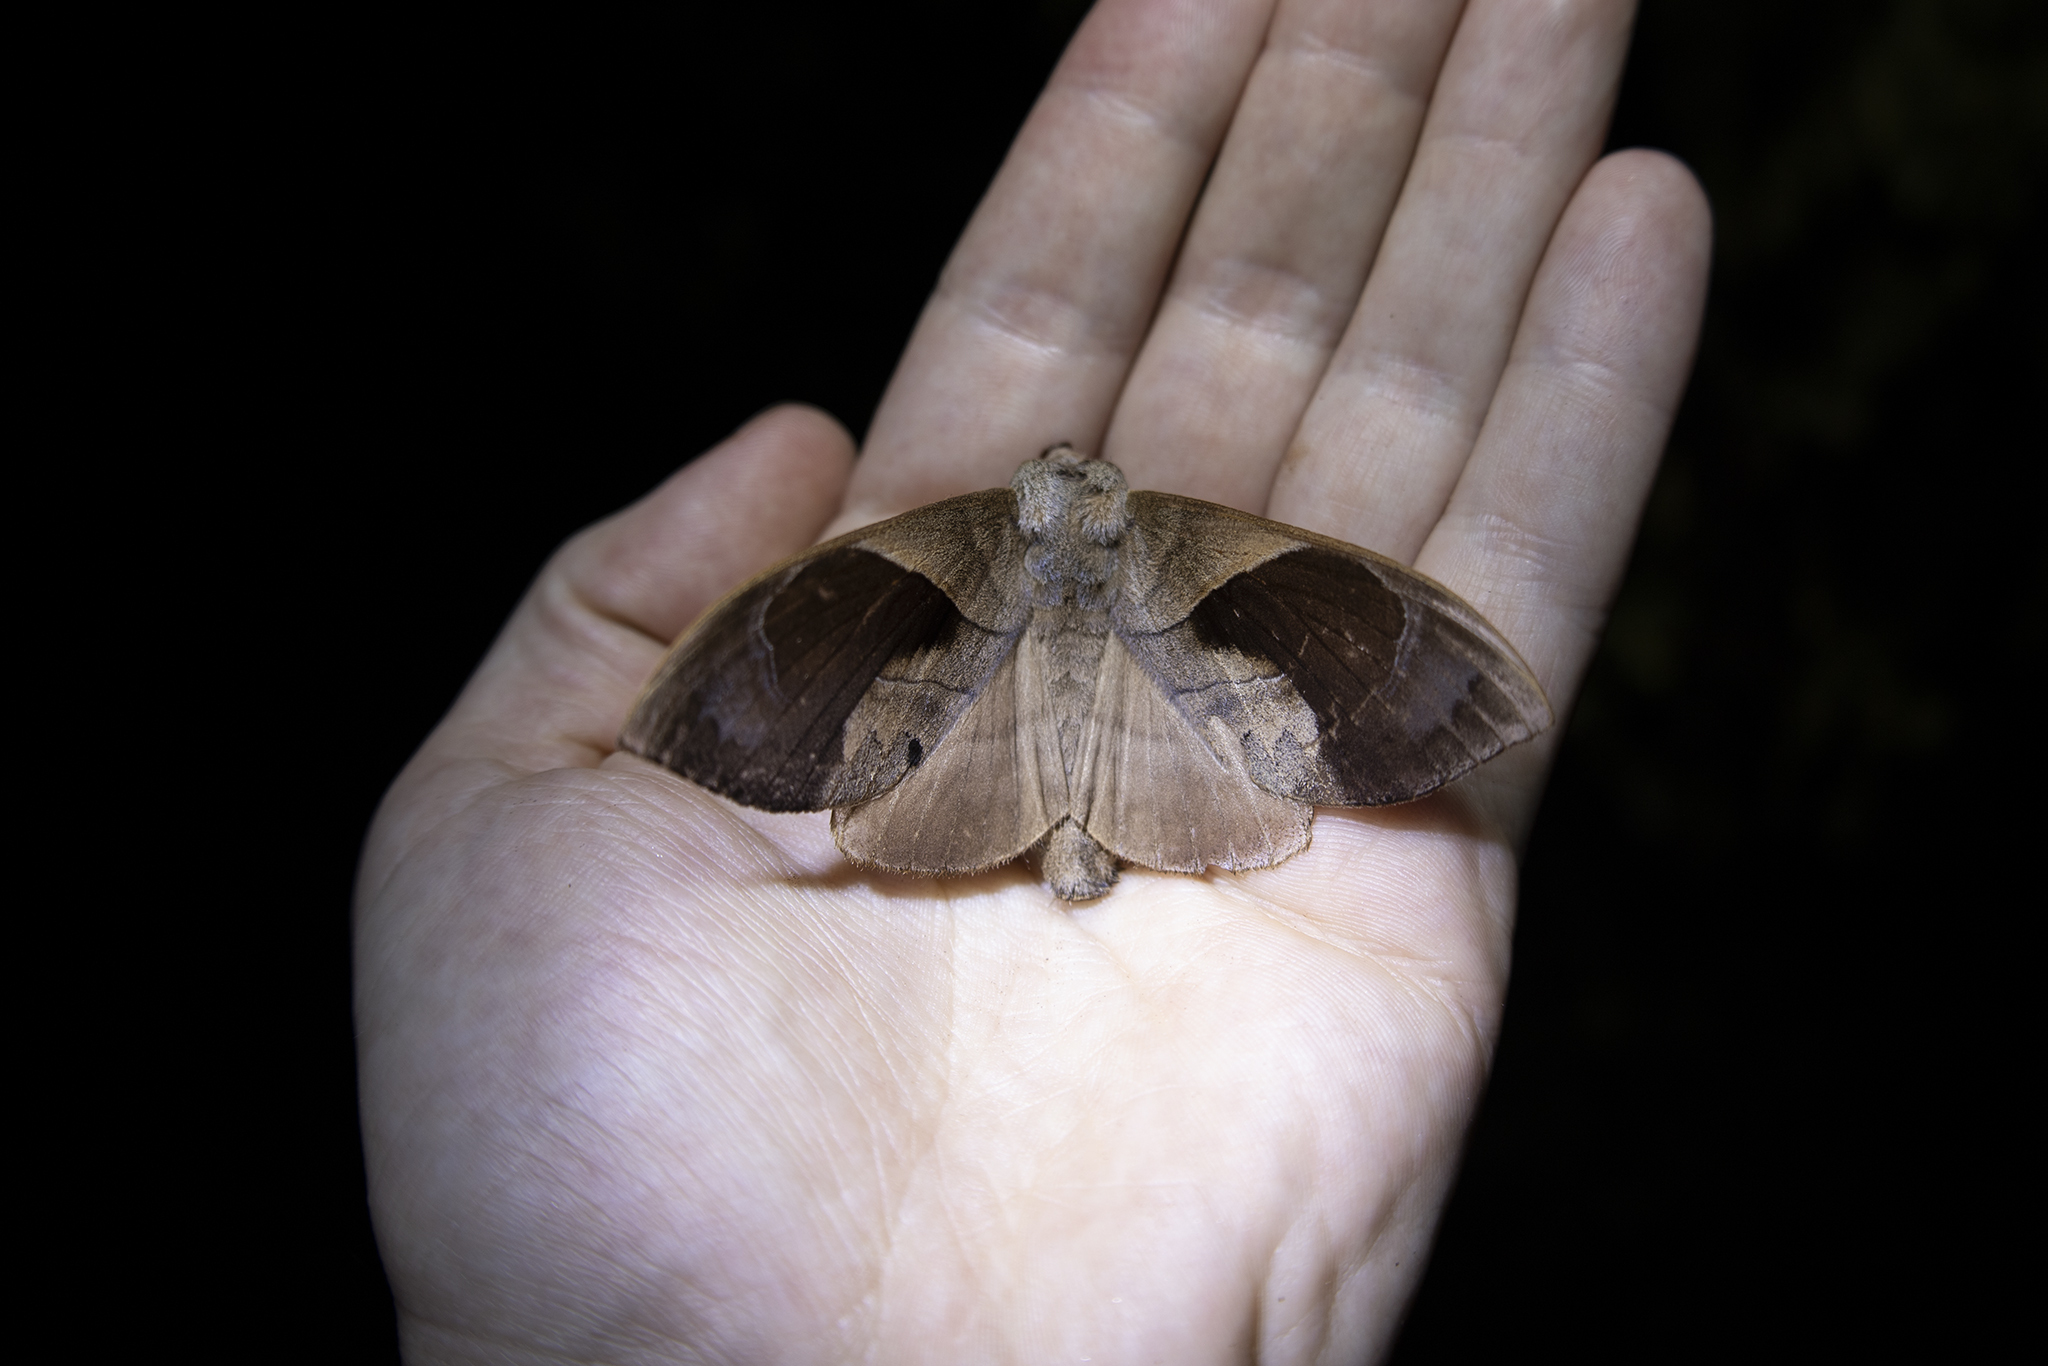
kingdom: Animalia
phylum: Arthropoda
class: Insecta
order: Lepidoptera
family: Lasiocampidae
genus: Paralebeda
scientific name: Paralebeda femorata
